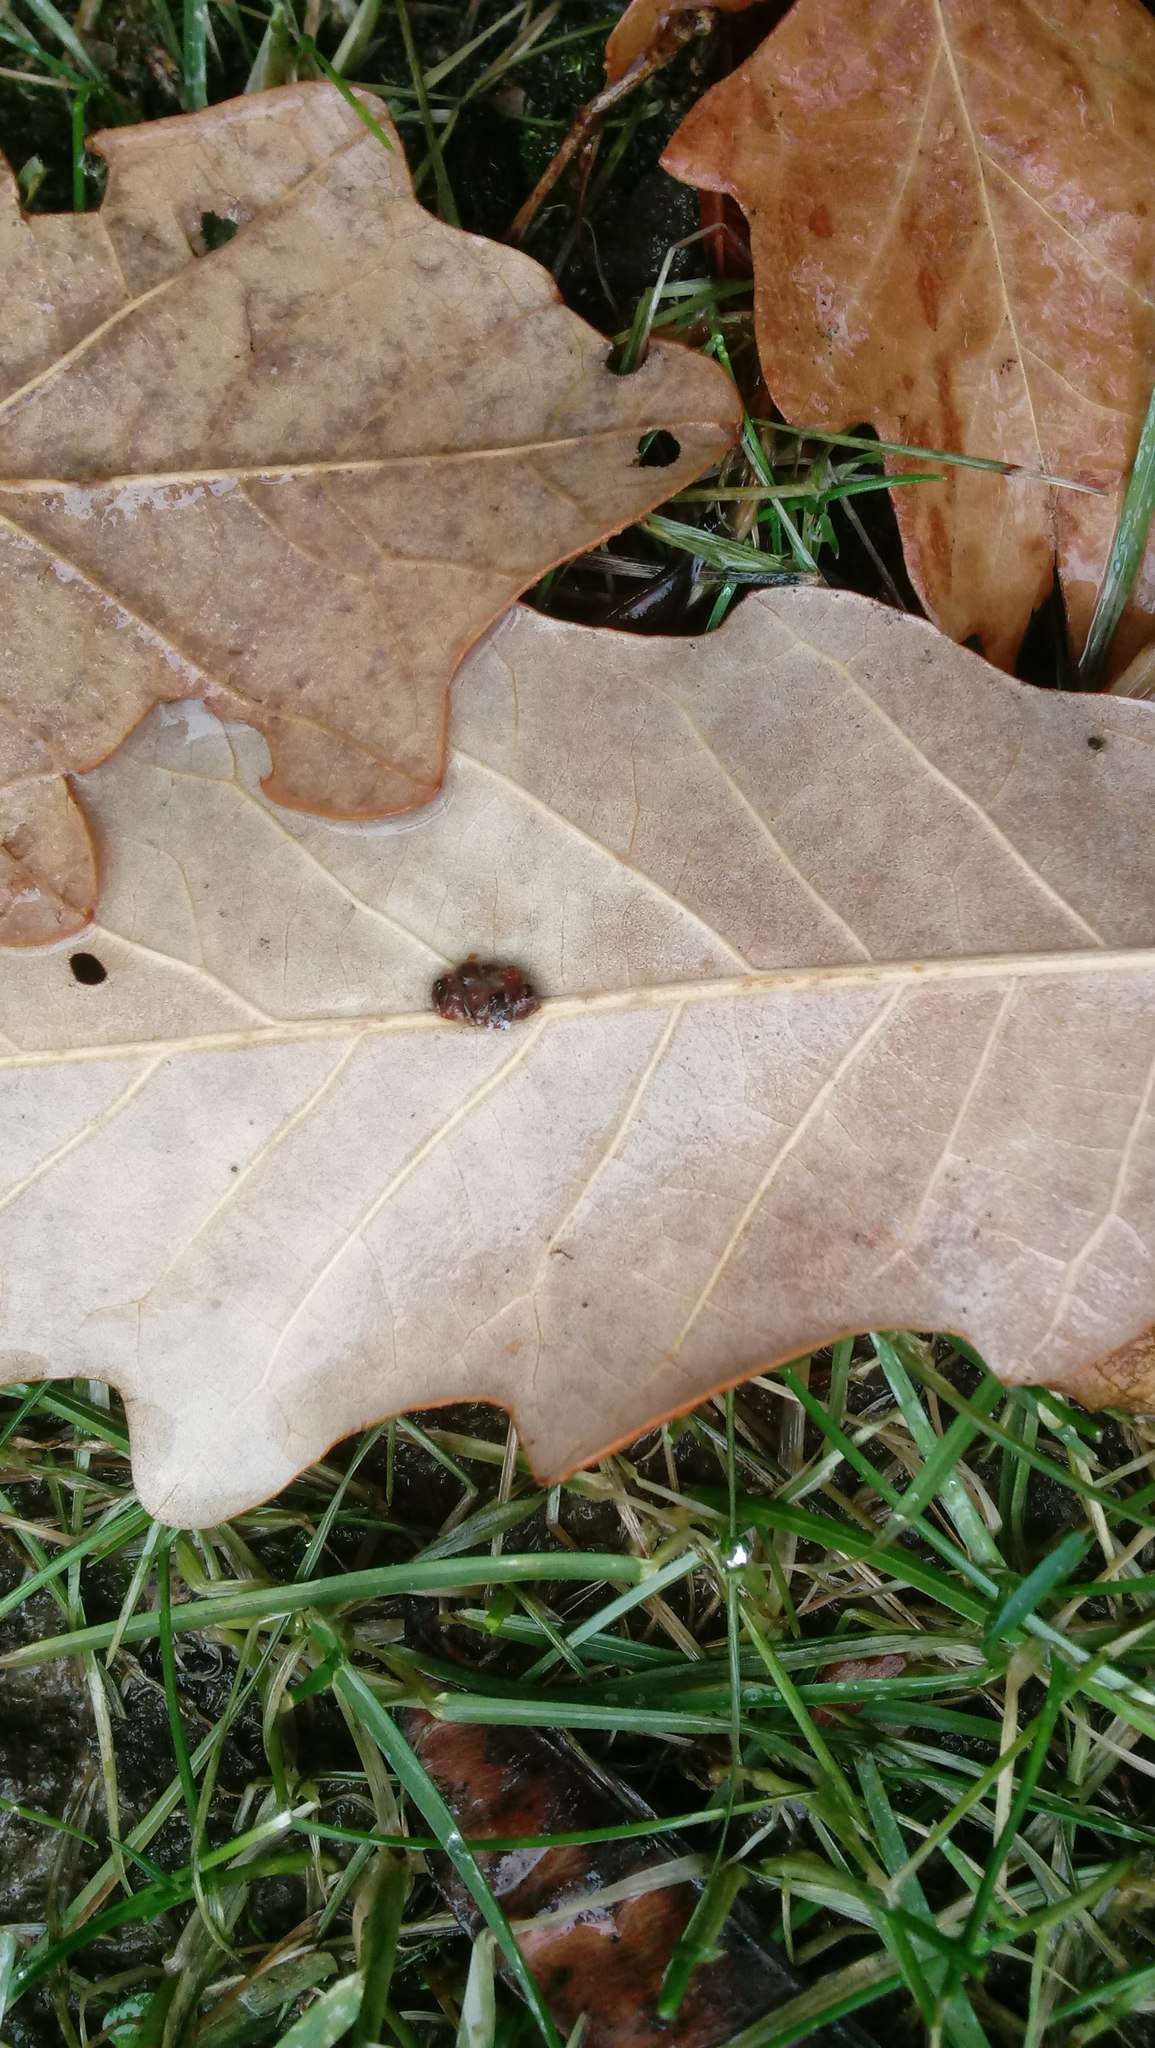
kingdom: Animalia
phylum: Arthropoda
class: Insecta
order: Hymenoptera
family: Cynipidae
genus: Andricus
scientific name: Andricus Druon ignotum
